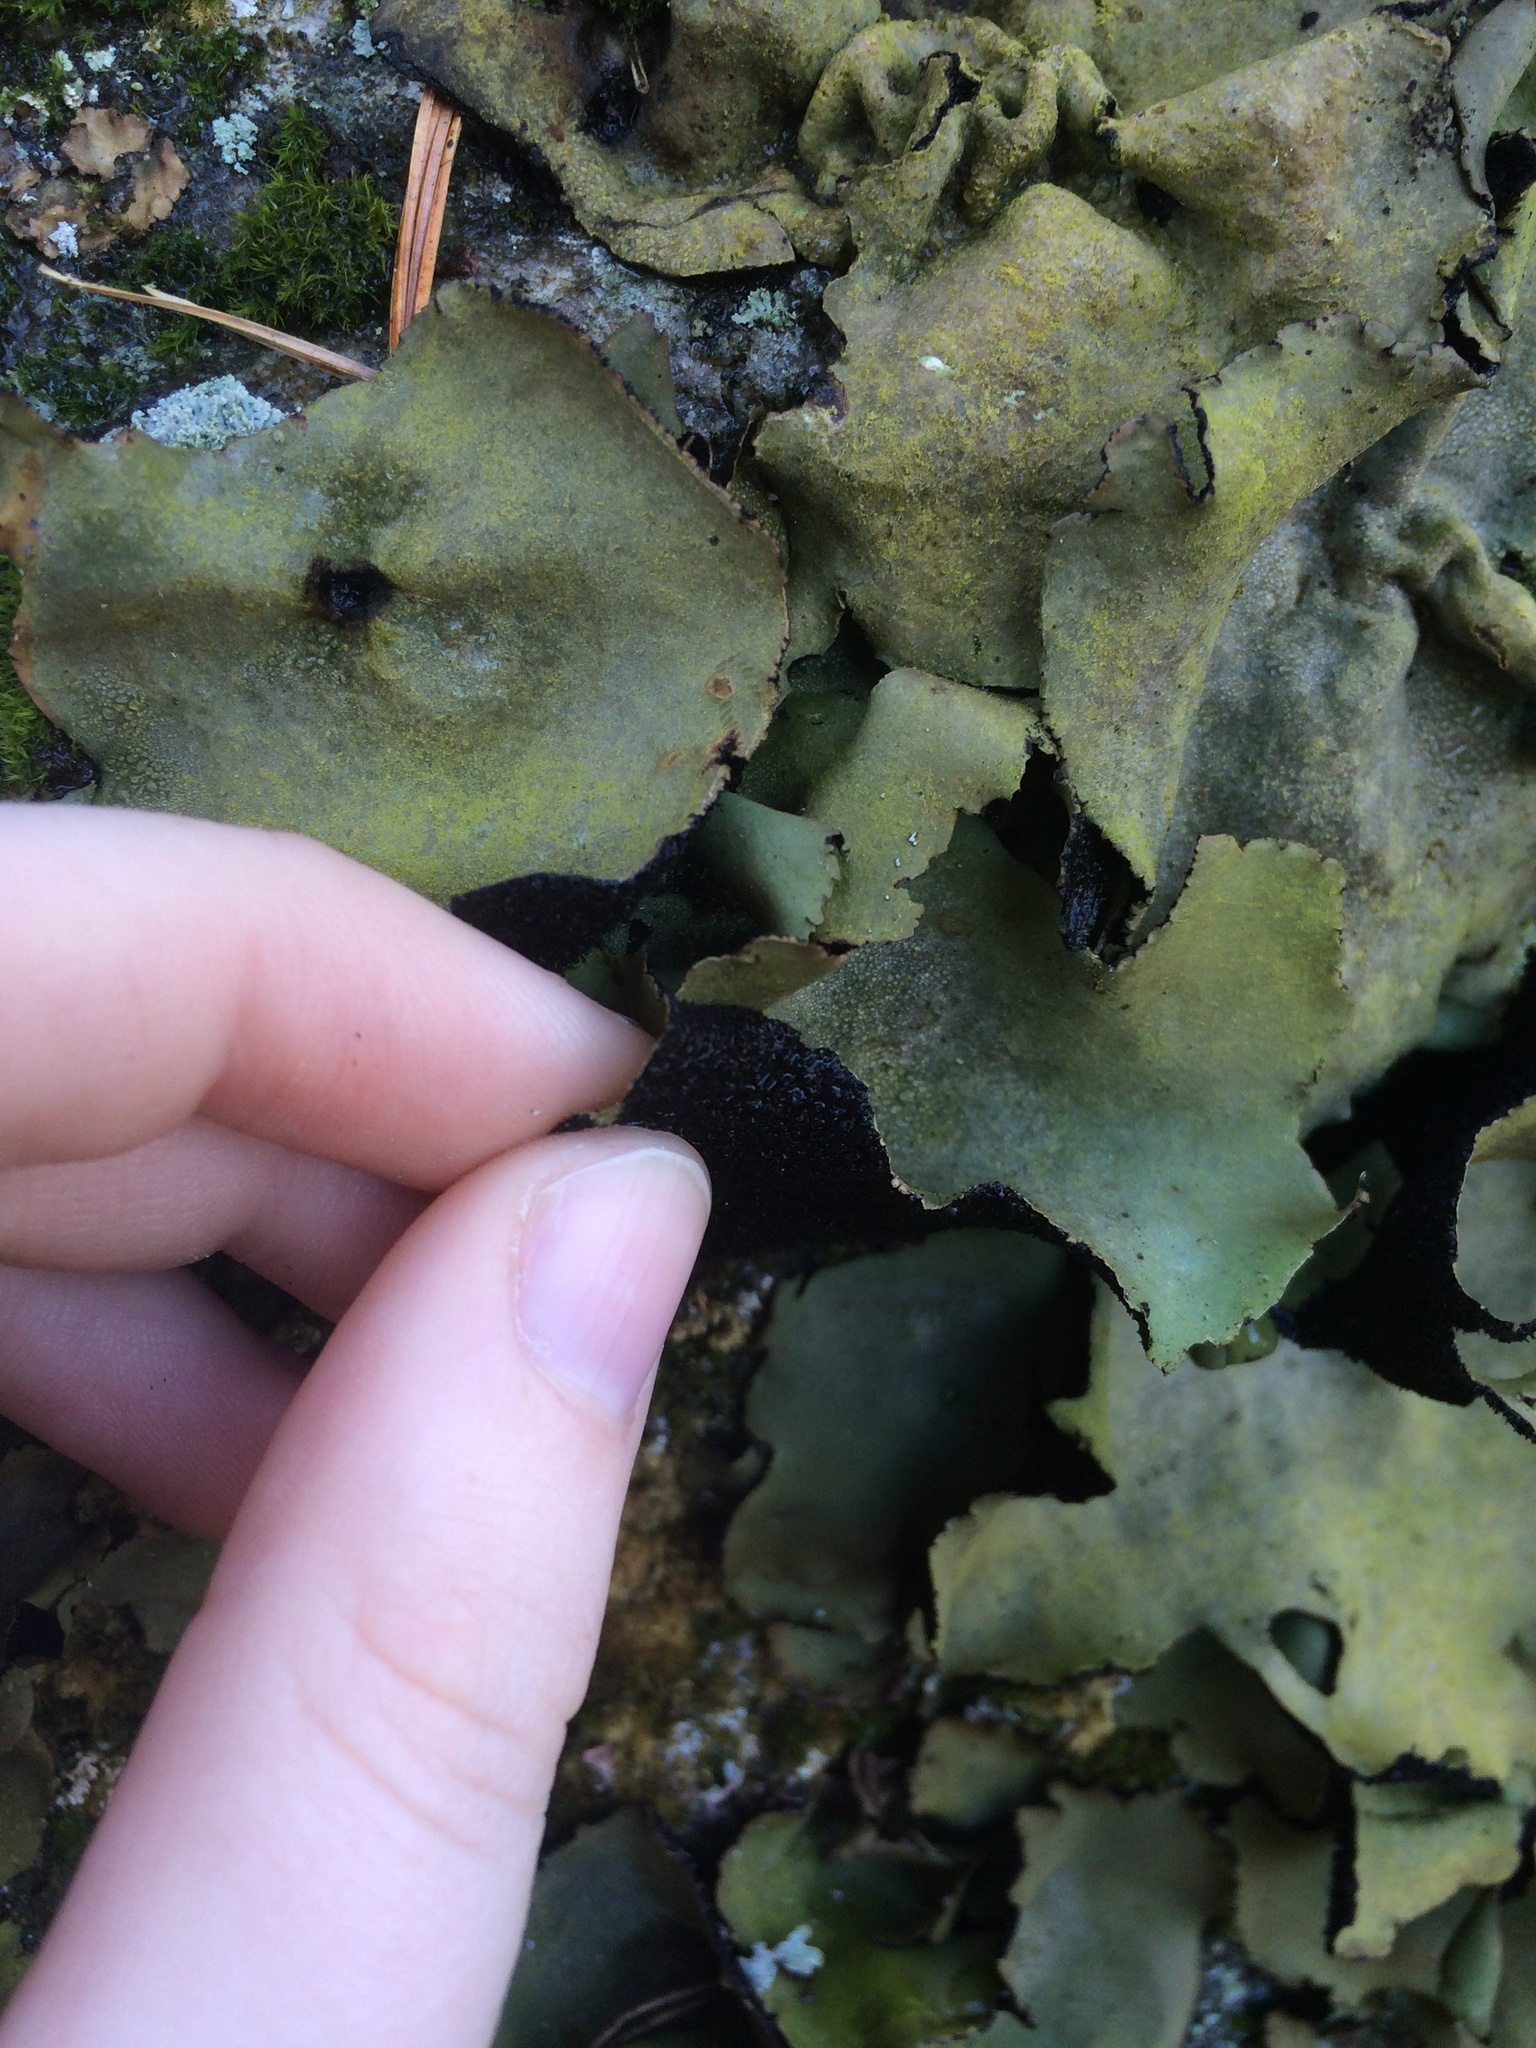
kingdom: Fungi
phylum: Ascomycota
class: Lecanoromycetes
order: Umbilicariales
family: Umbilicariaceae
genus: Umbilicaria
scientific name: Umbilicaria mammulata
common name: Smooth rock tripe
